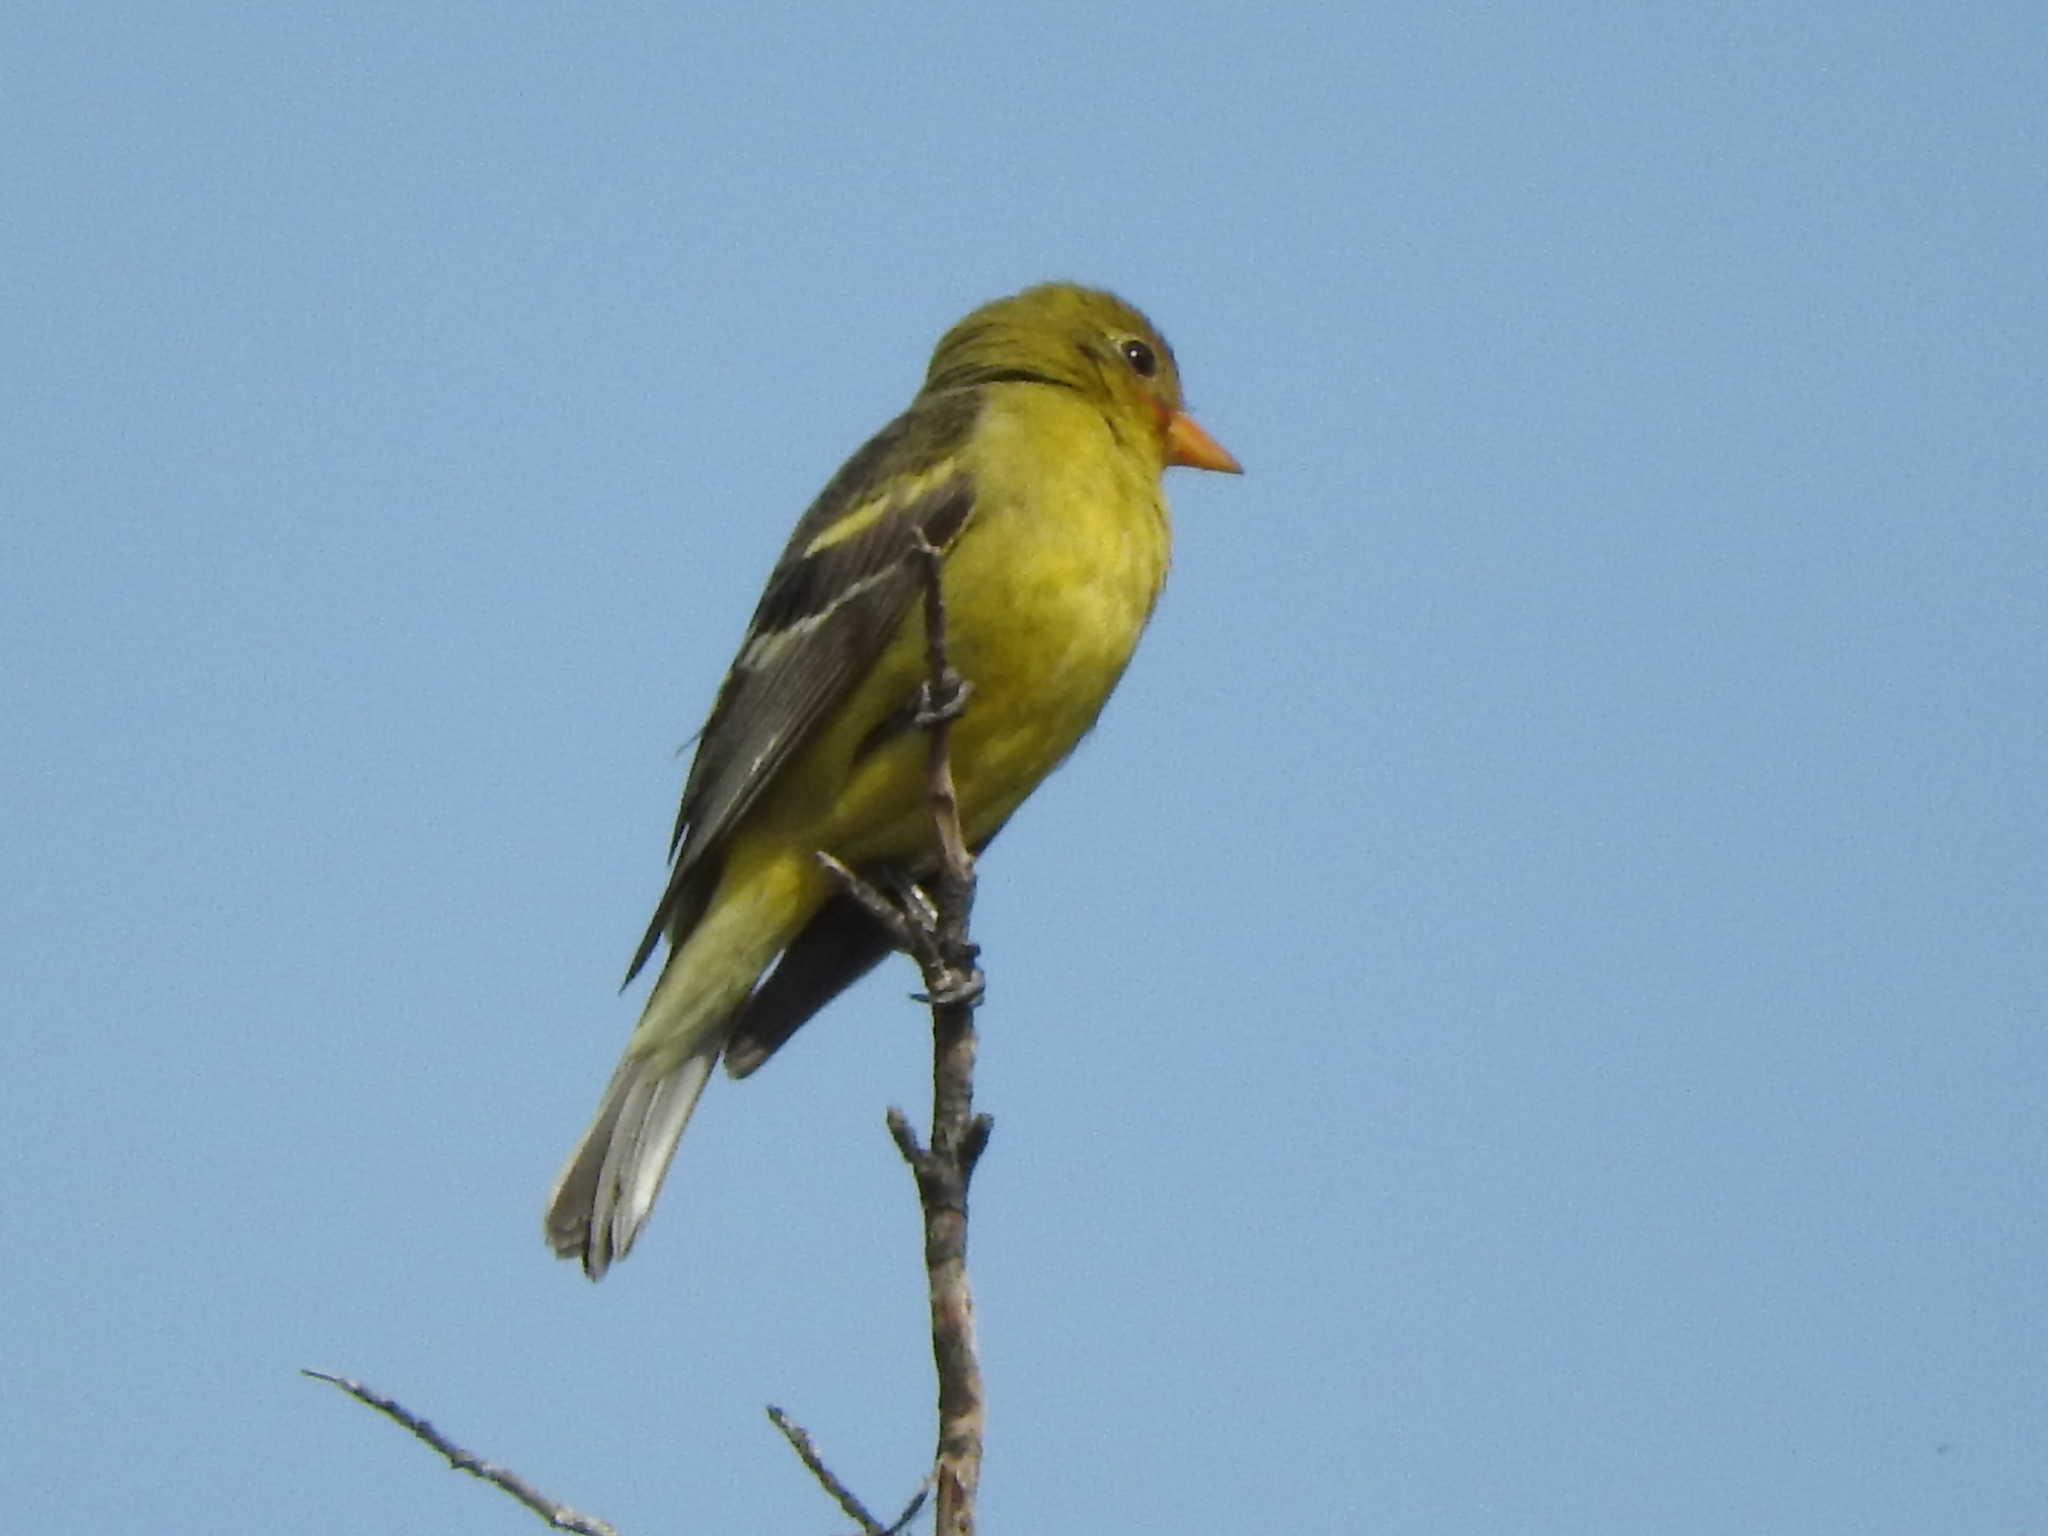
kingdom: Animalia
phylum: Chordata
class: Aves
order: Passeriformes
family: Cardinalidae
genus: Piranga
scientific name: Piranga ludoviciana
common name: Western tanager
